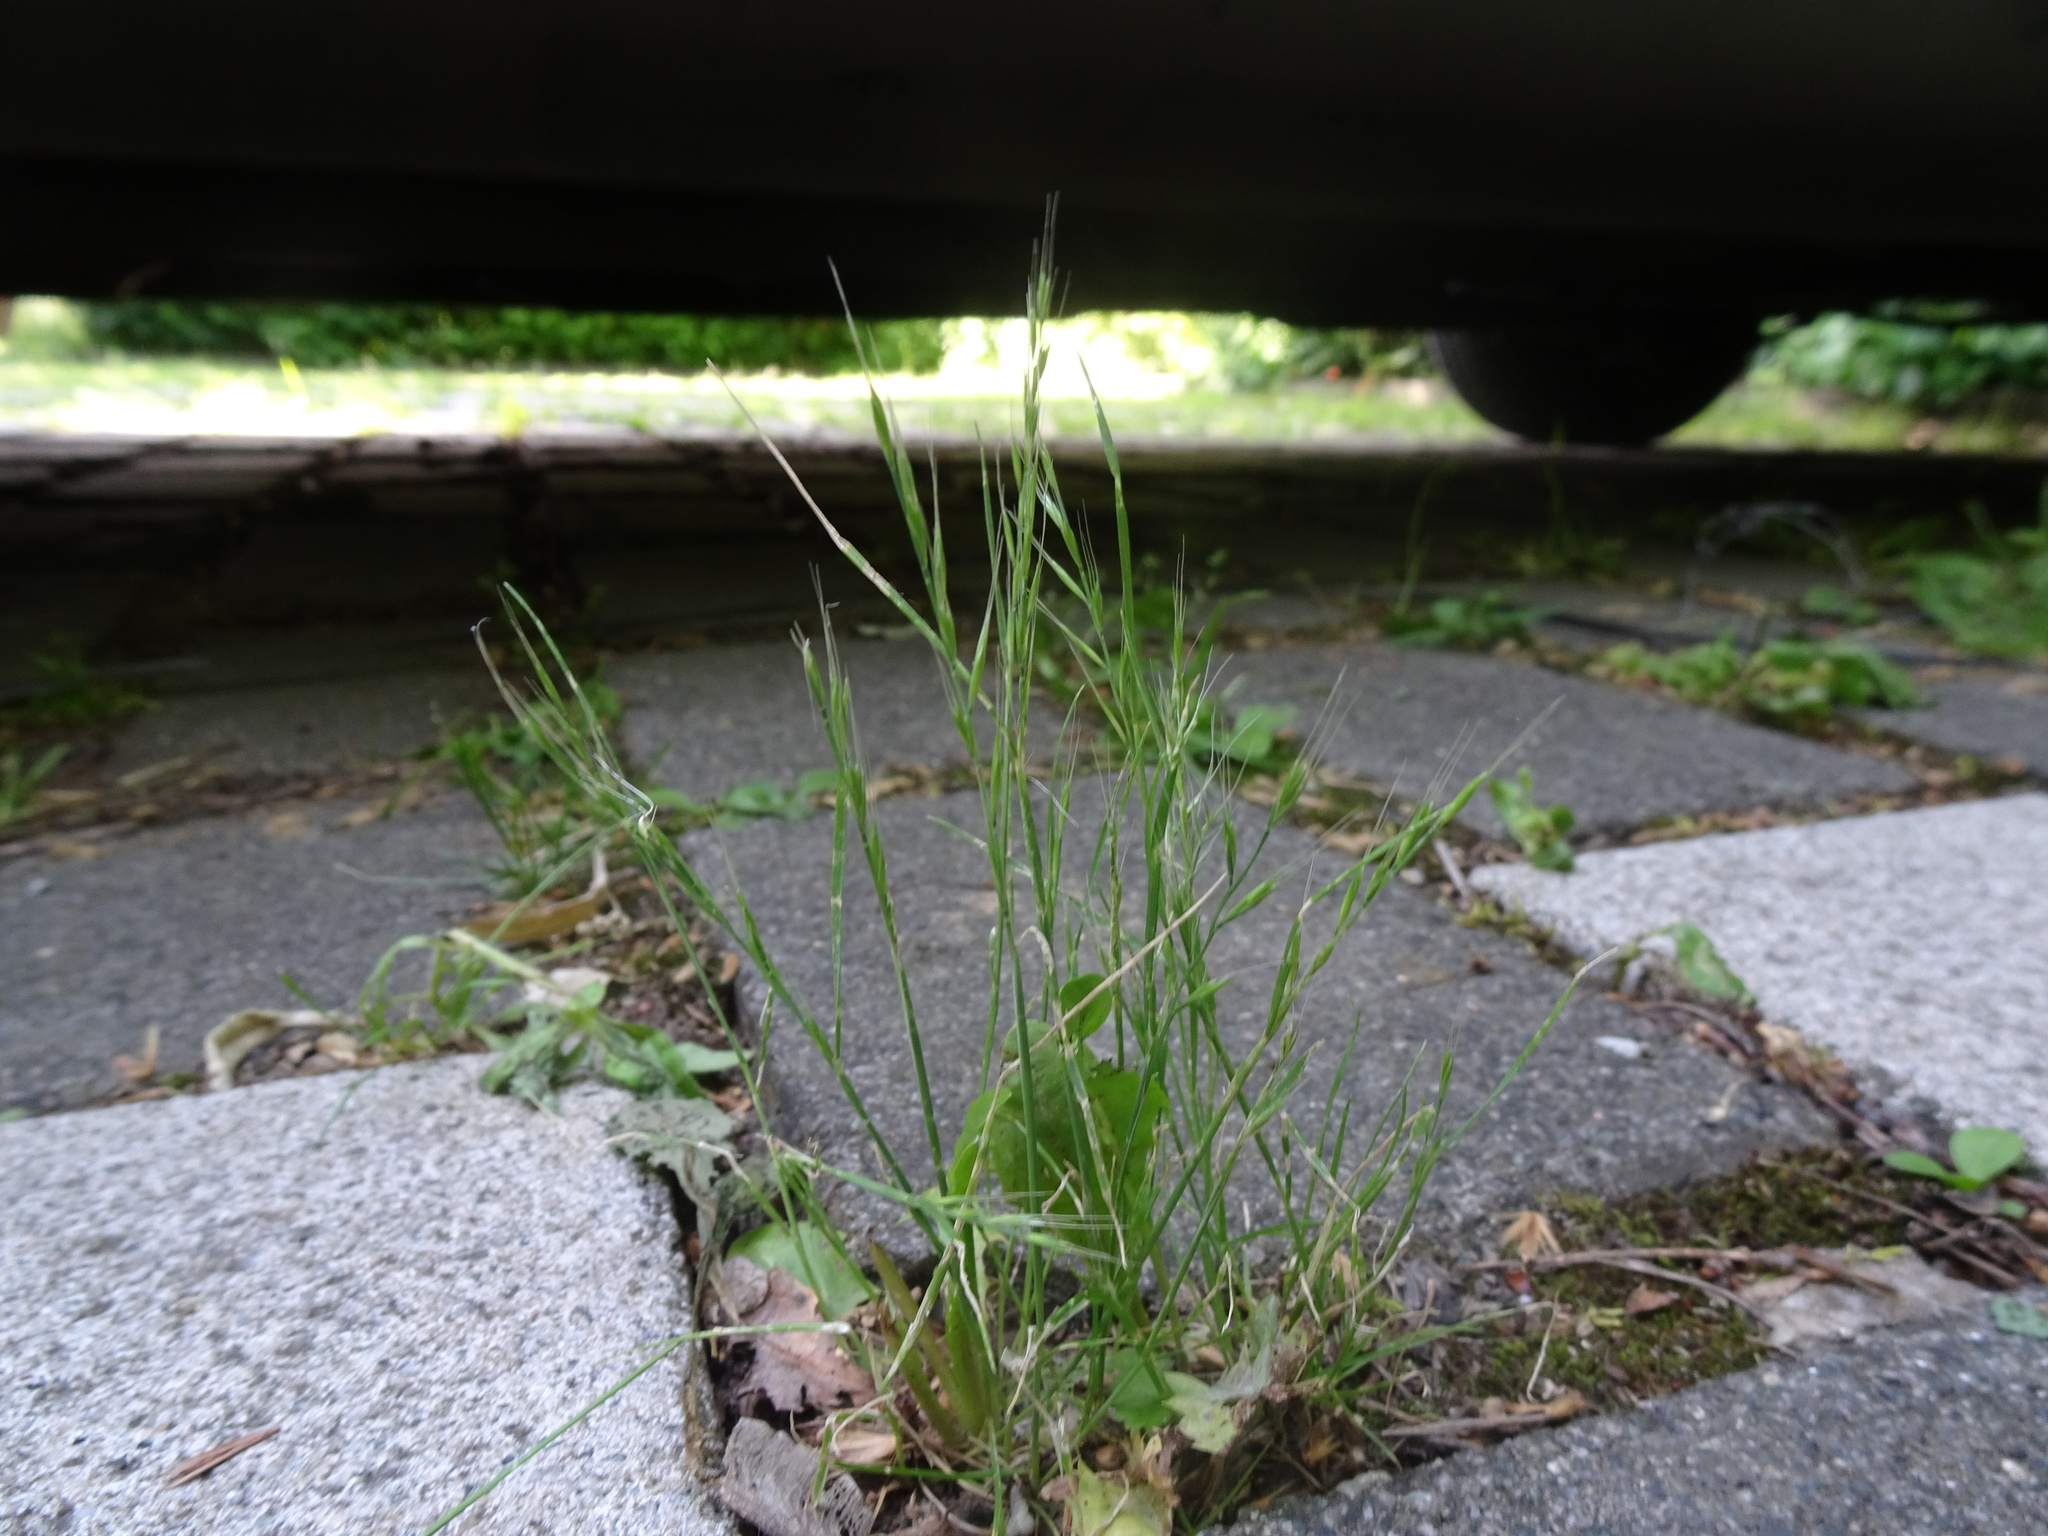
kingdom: Plantae
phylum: Tracheophyta
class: Liliopsida
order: Poales
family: Poaceae
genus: Festuca
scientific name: Festuca myuros
